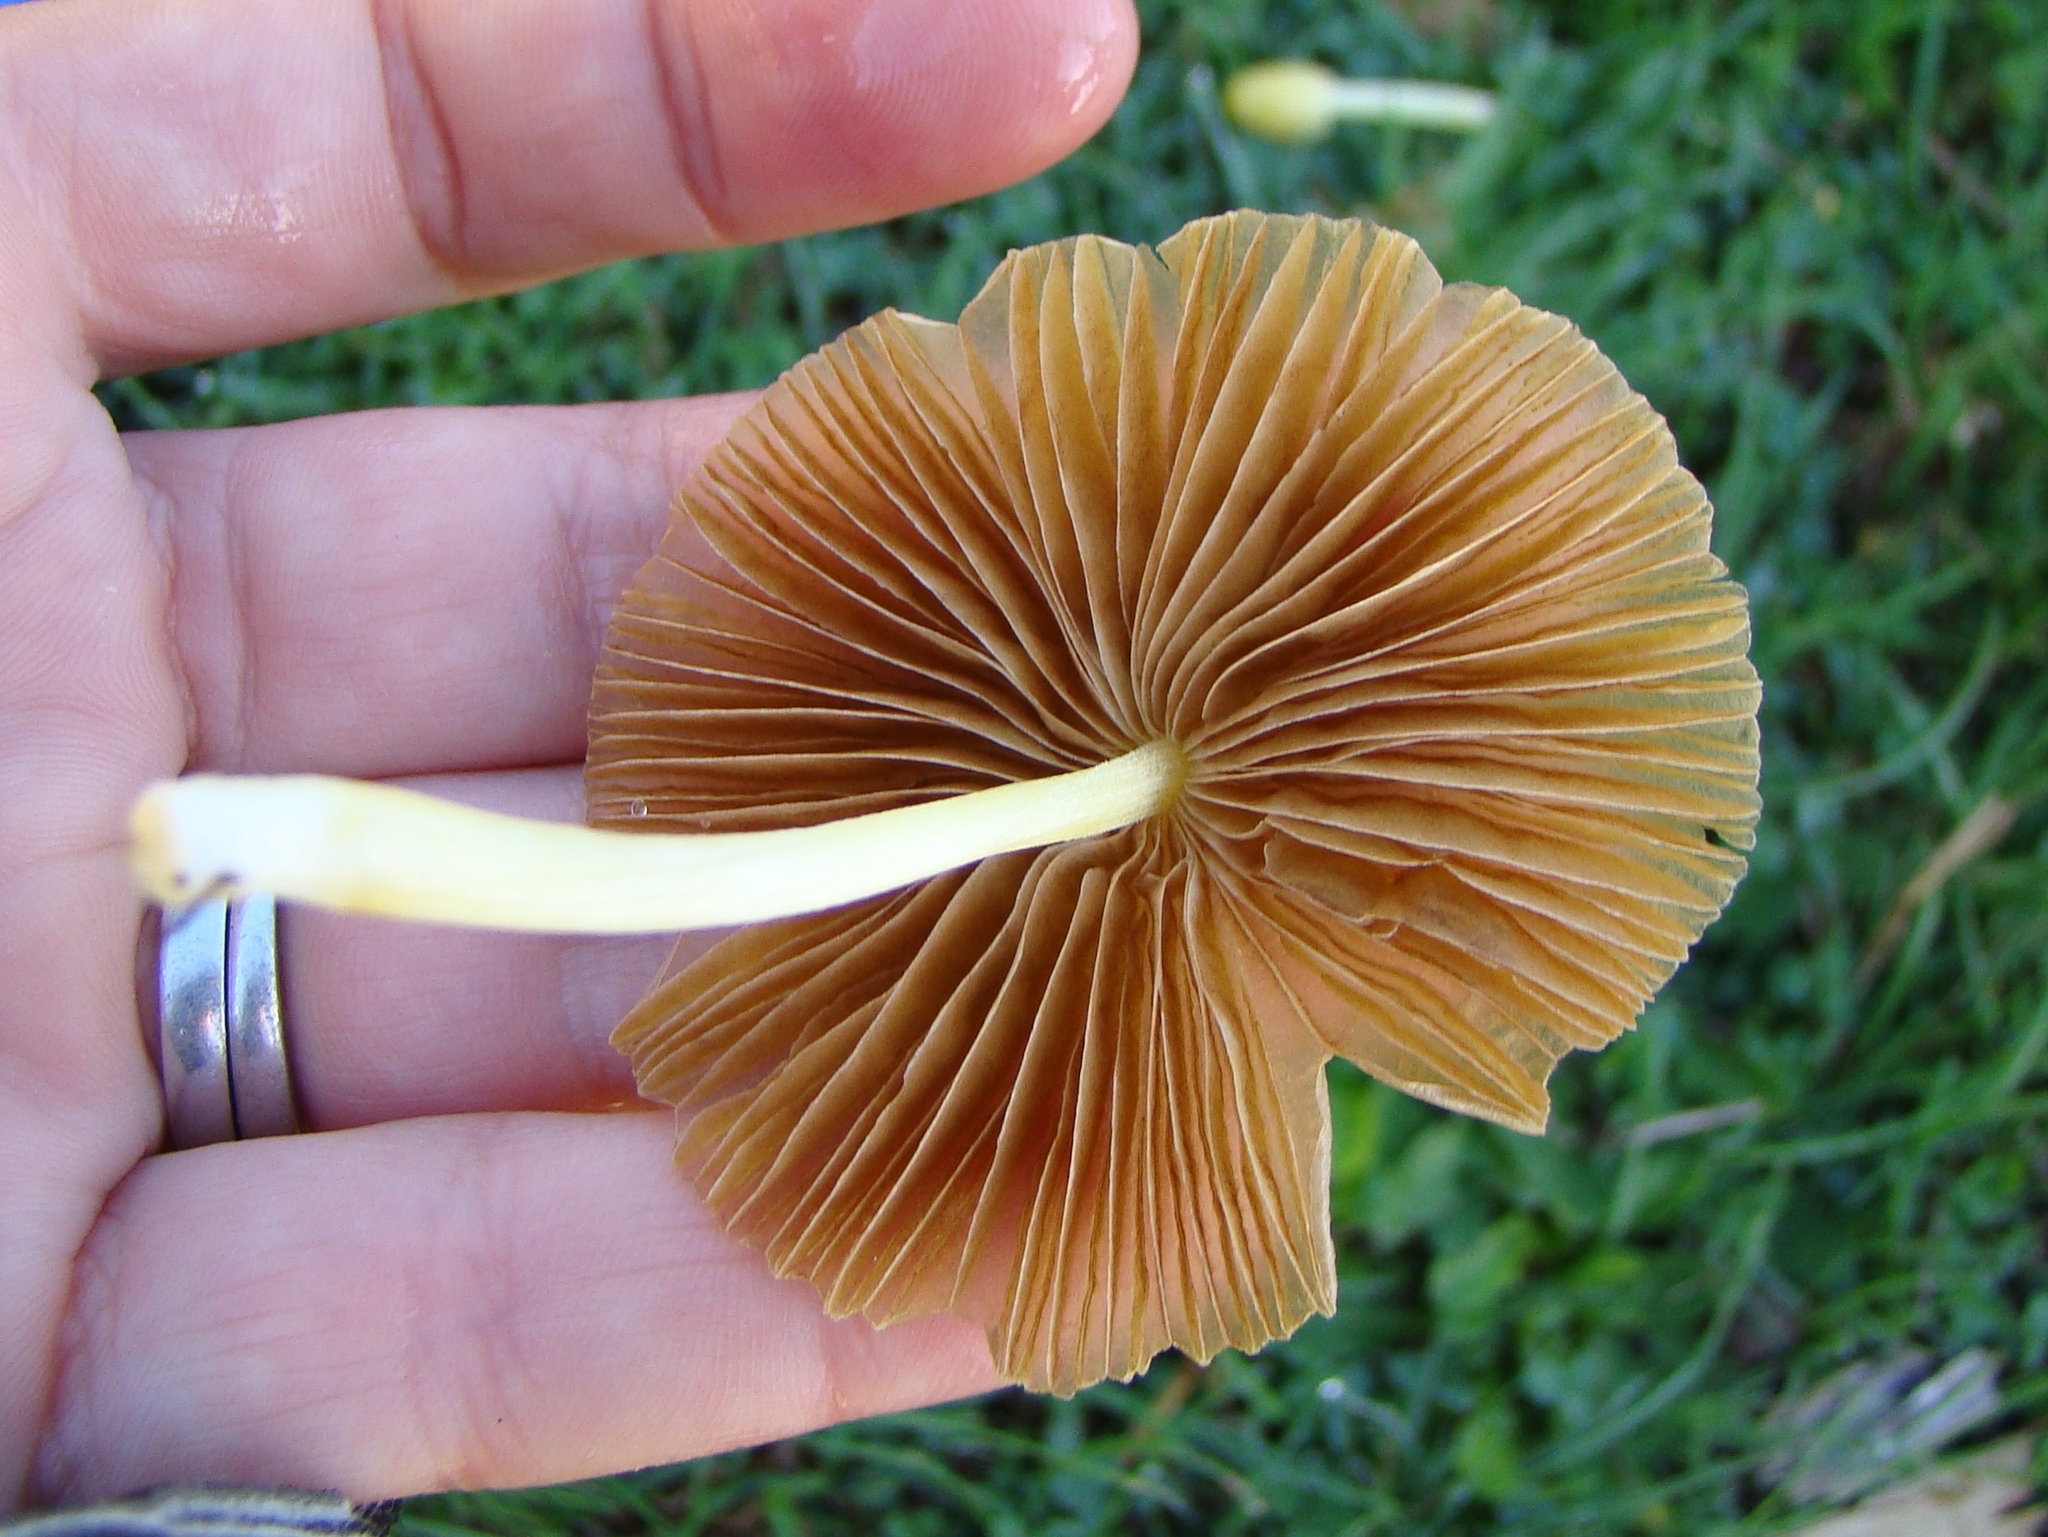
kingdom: Fungi
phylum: Basidiomycota
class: Agaricomycetes
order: Agaricales
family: Bolbitiaceae
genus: Bolbitius
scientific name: Bolbitius titubans
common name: Yellow fieldcap
